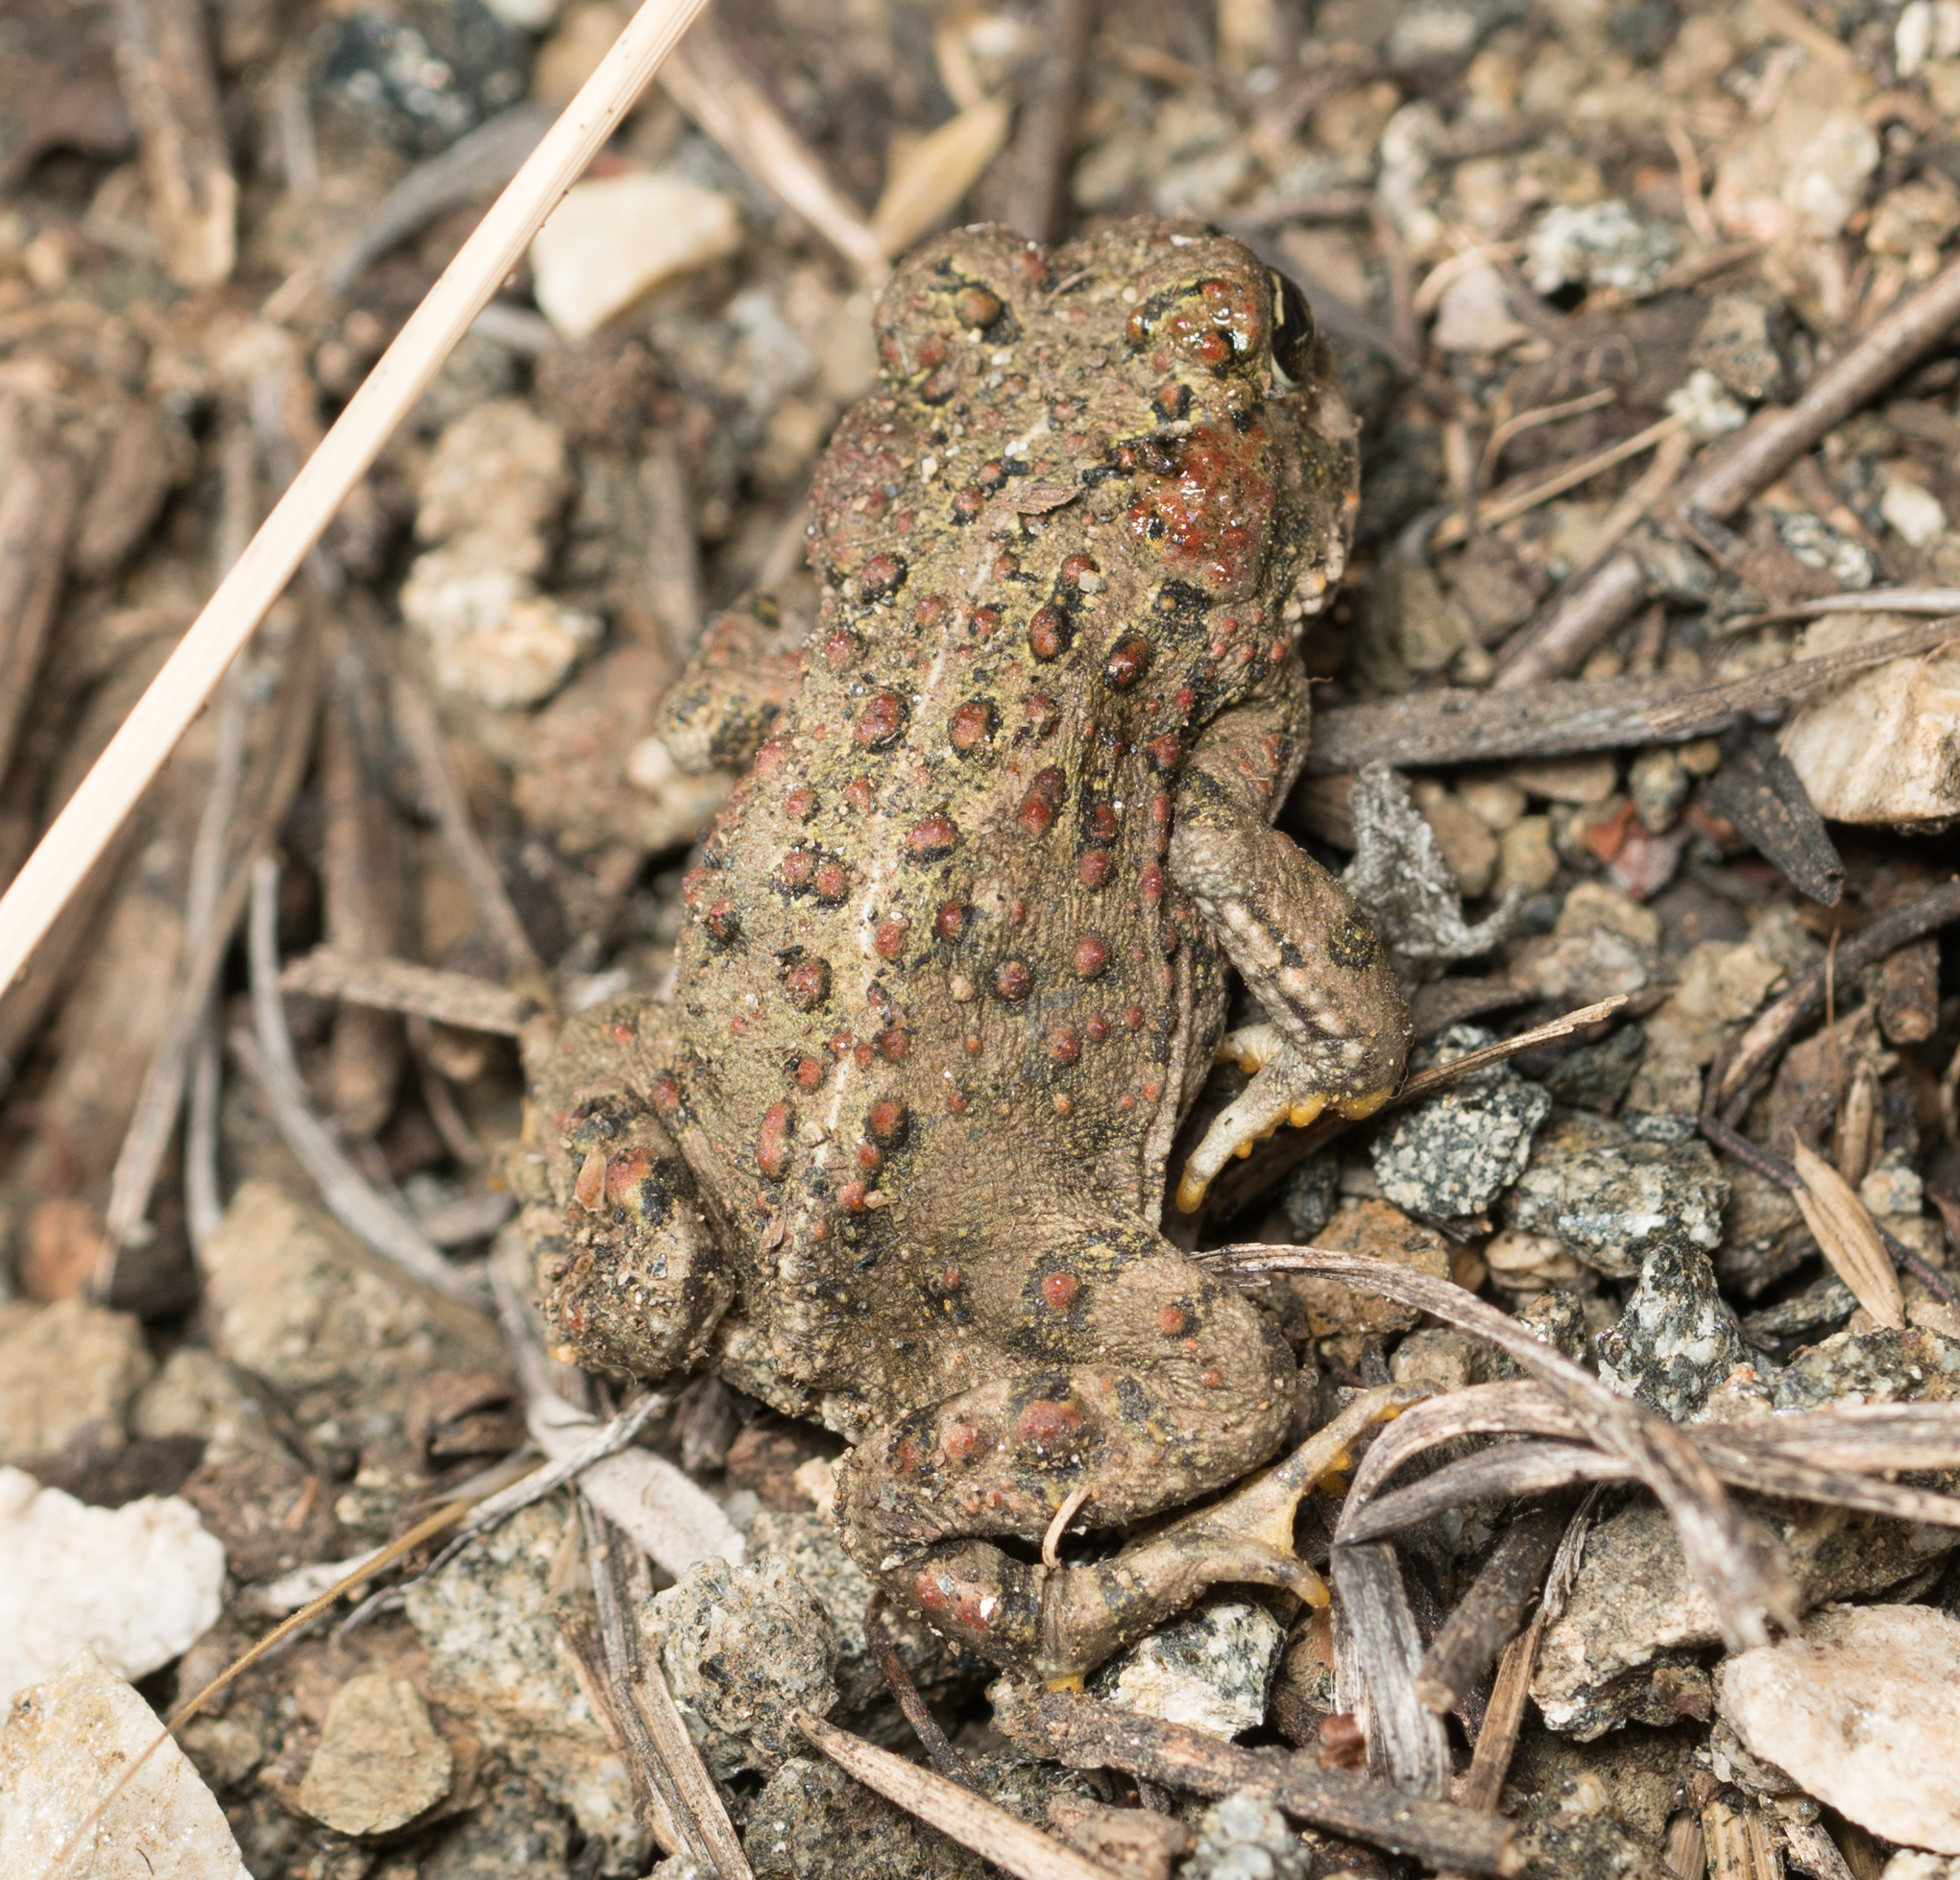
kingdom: Animalia
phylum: Chordata
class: Amphibia
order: Anura
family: Bufonidae
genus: Anaxyrus
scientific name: Anaxyrus boreas
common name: Western toad
